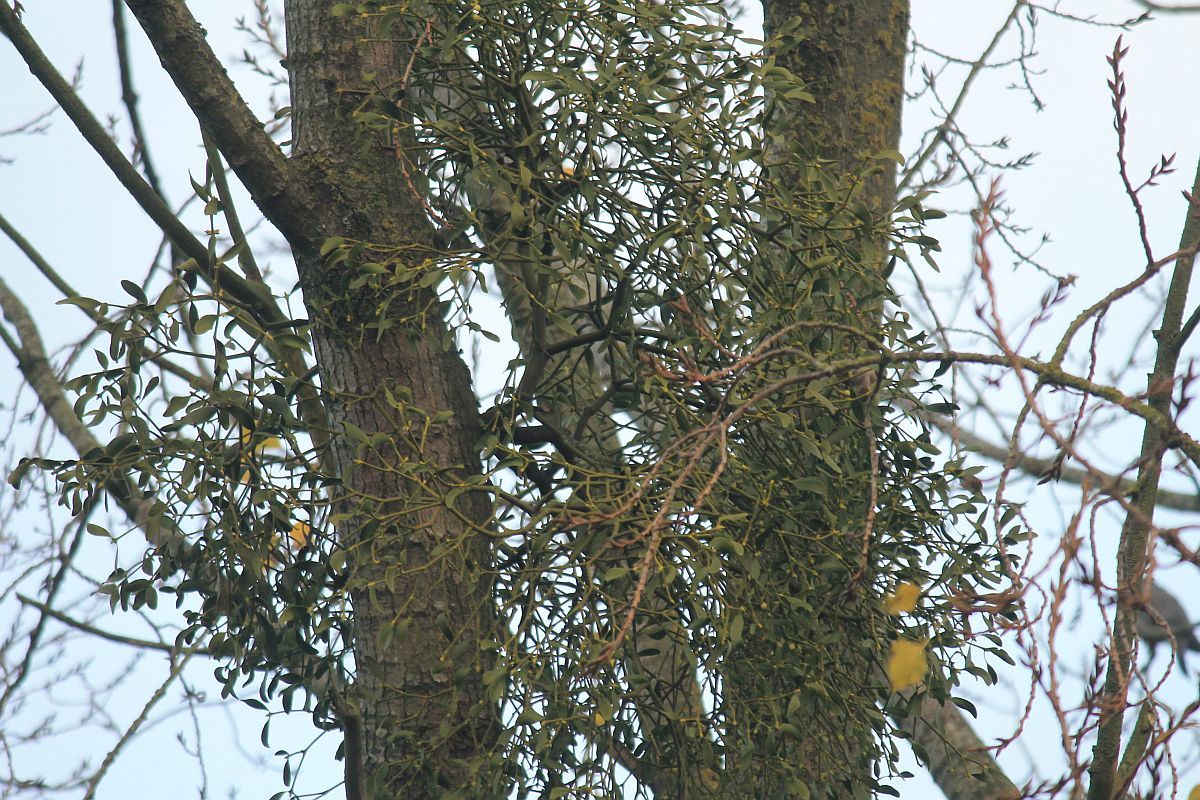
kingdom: Plantae
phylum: Tracheophyta
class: Magnoliopsida
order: Santalales
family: Viscaceae
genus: Viscum
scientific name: Viscum album
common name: Mistletoe
